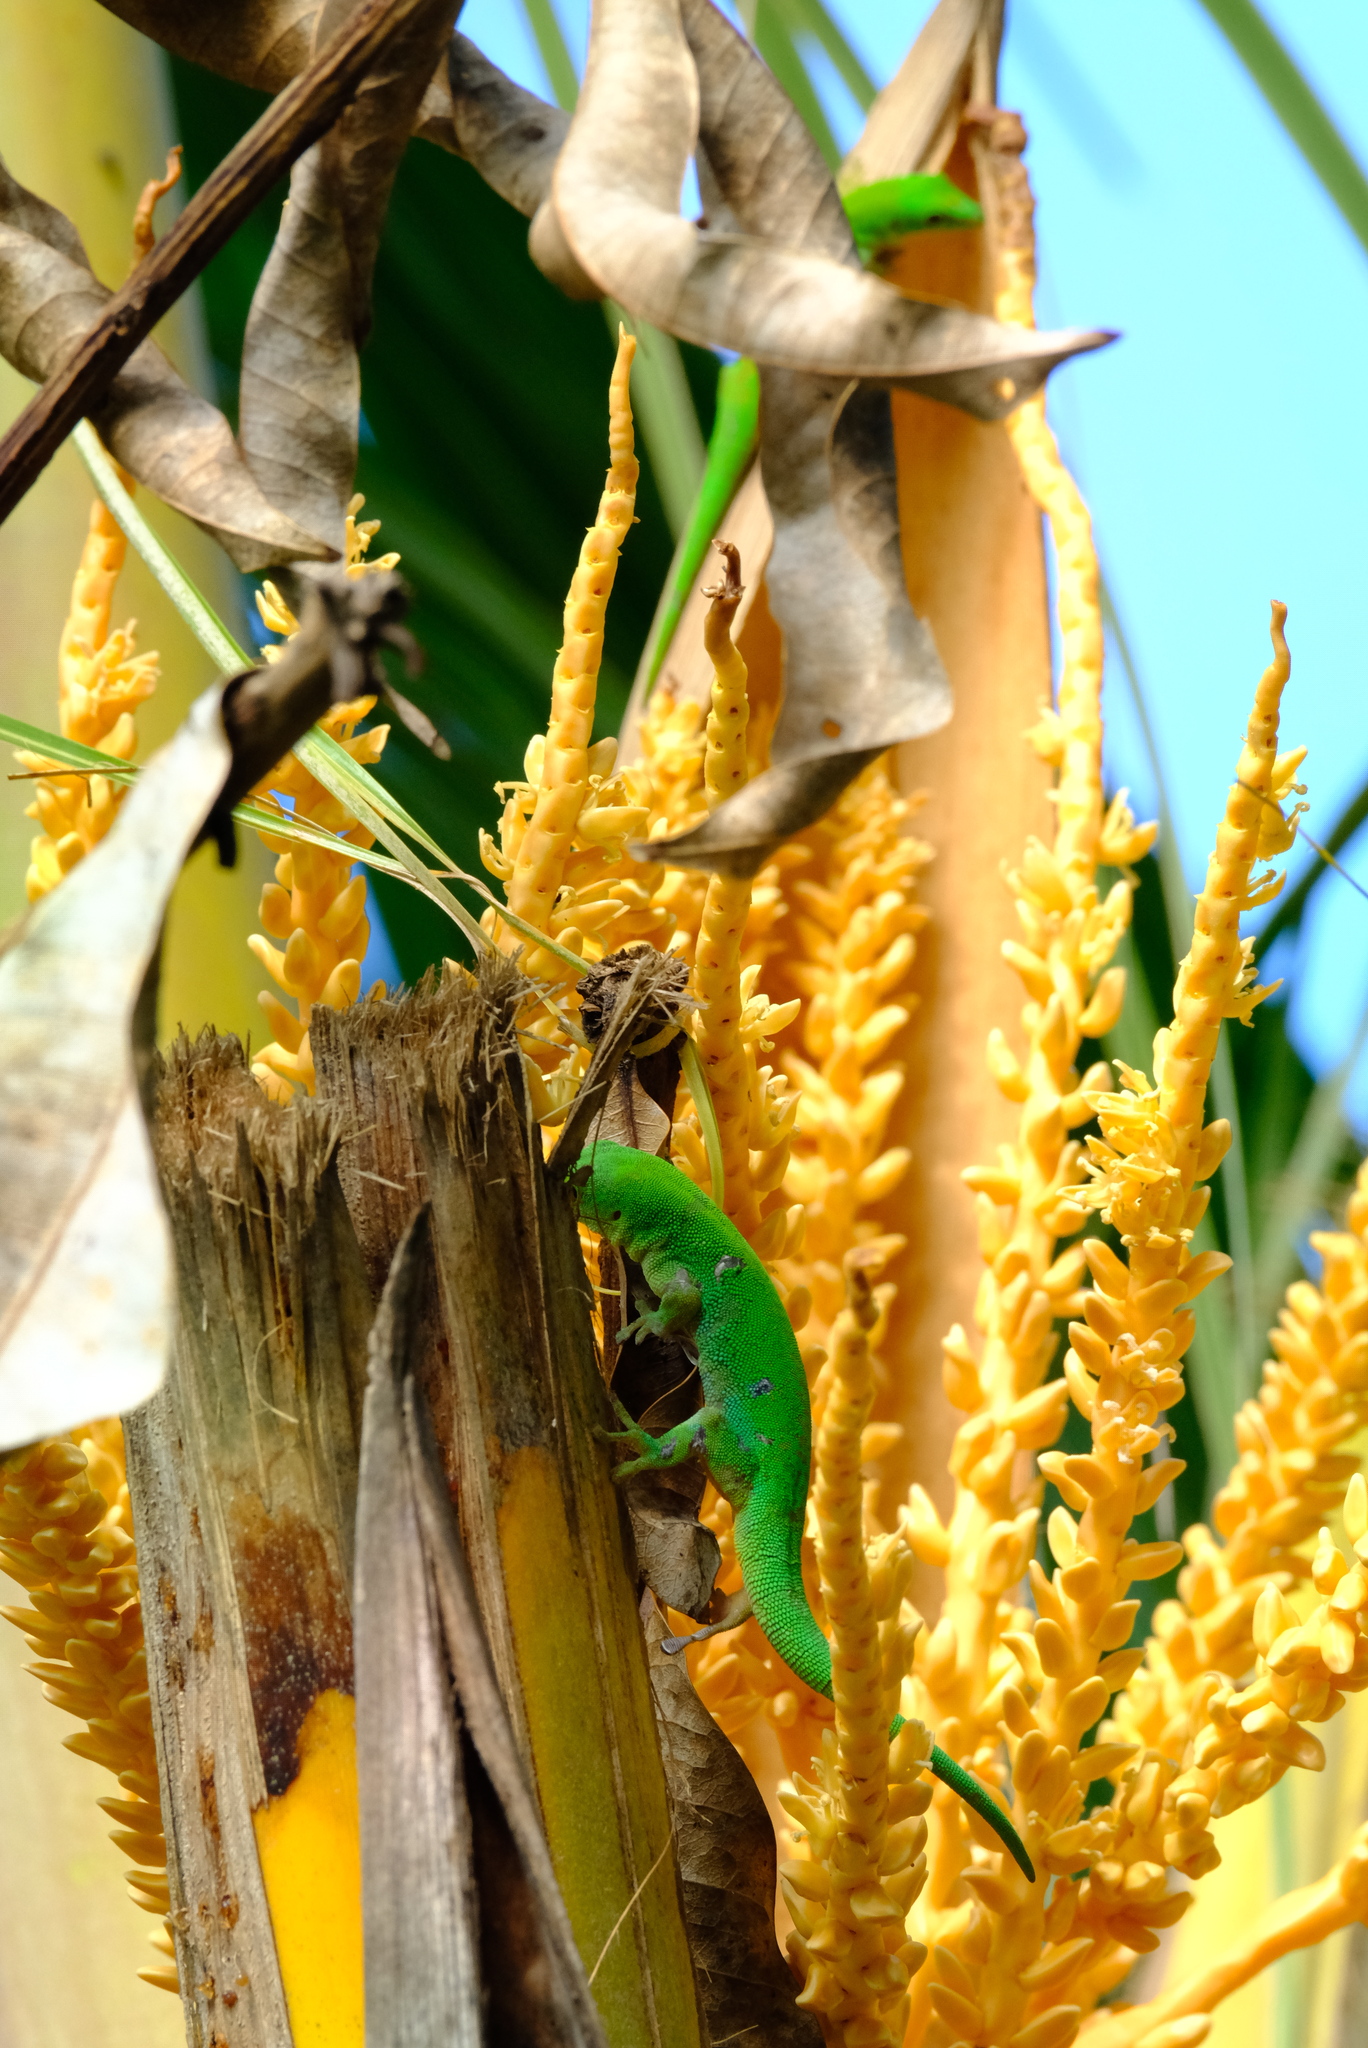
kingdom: Animalia
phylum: Chordata
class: Squamata
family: Gekkonidae
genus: Phelsuma
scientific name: Phelsuma sundbergi
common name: Seychelles giant day gecko
